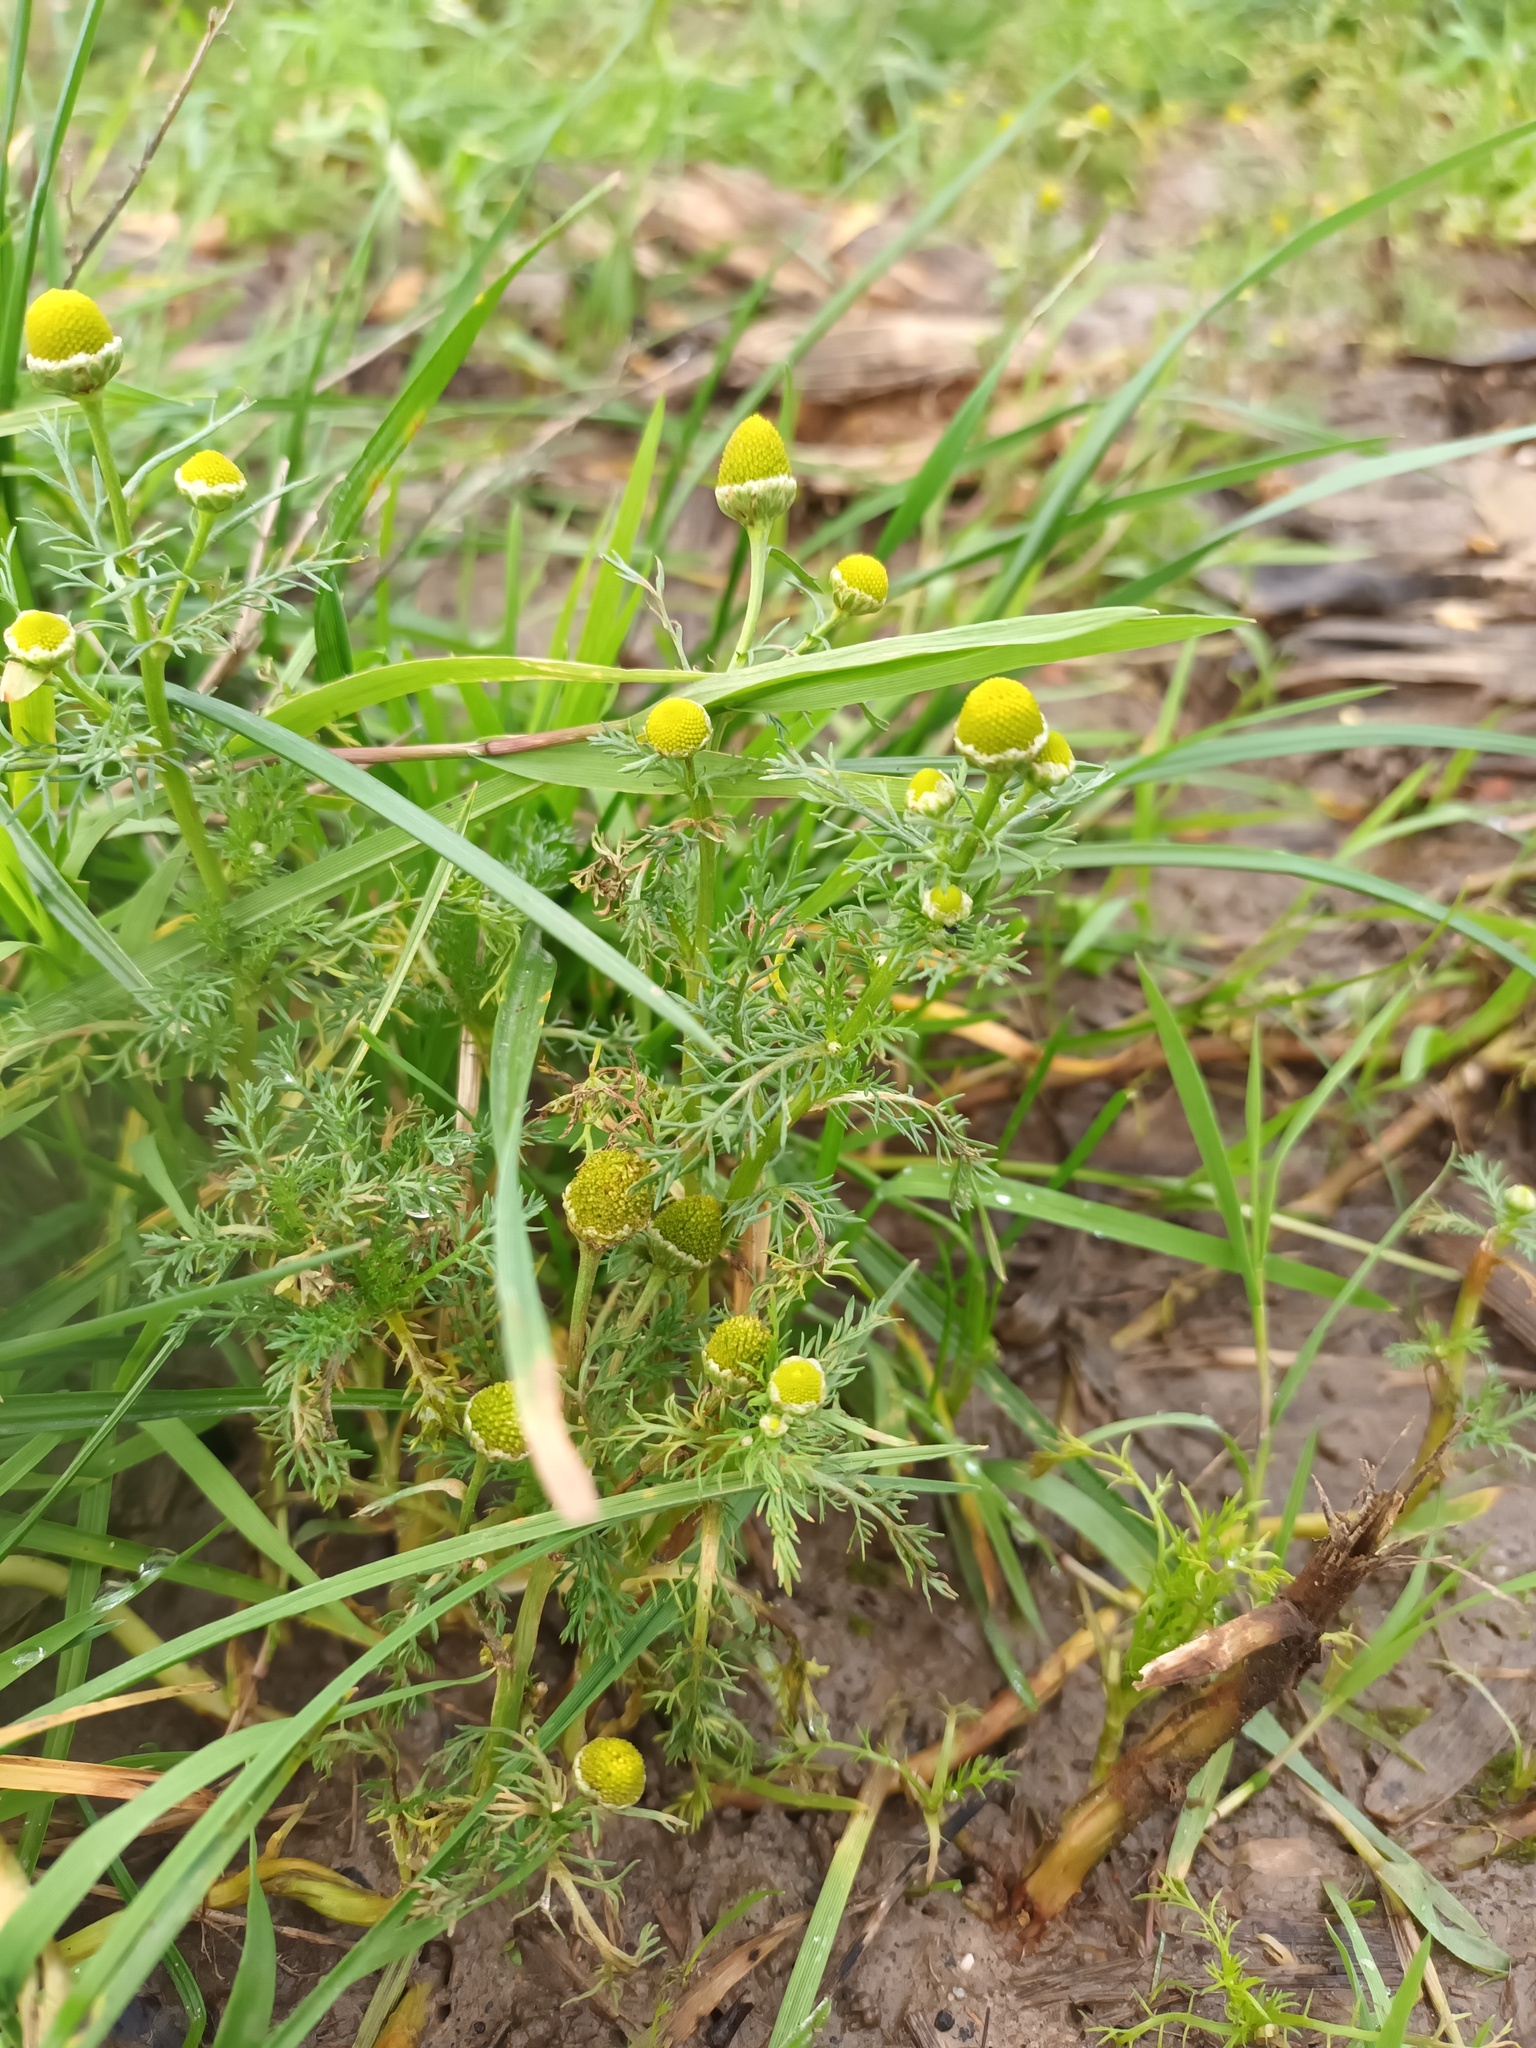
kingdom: Plantae
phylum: Tracheophyta
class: Magnoliopsida
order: Asterales
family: Asteraceae
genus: Matricaria
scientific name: Matricaria discoidea
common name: Disc mayweed
